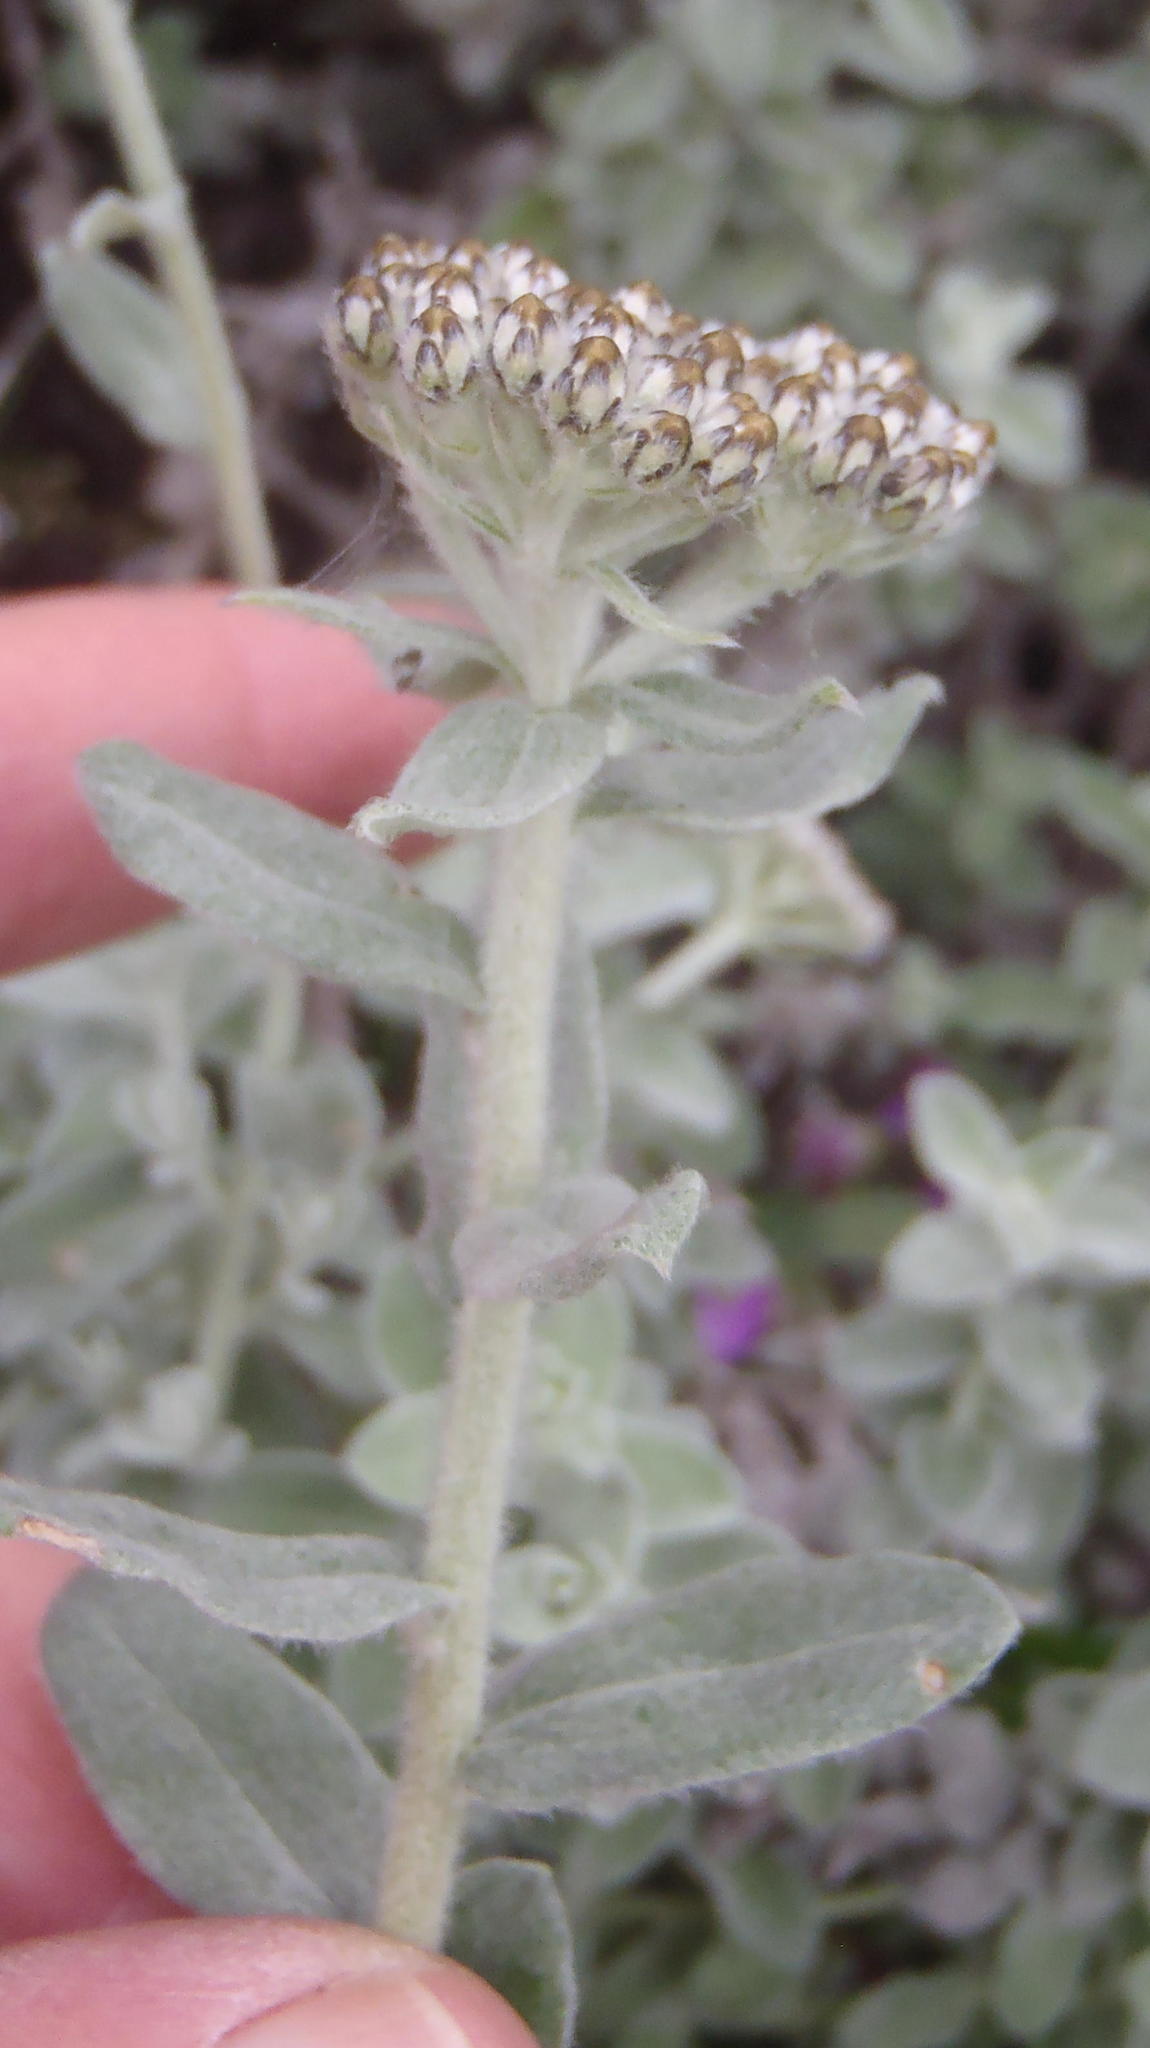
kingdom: Plantae
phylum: Tracheophyta
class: Magnoliopsida
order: Asterales
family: Asteraceae
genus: Helichrysum
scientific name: Helichrysum dasyanthum
